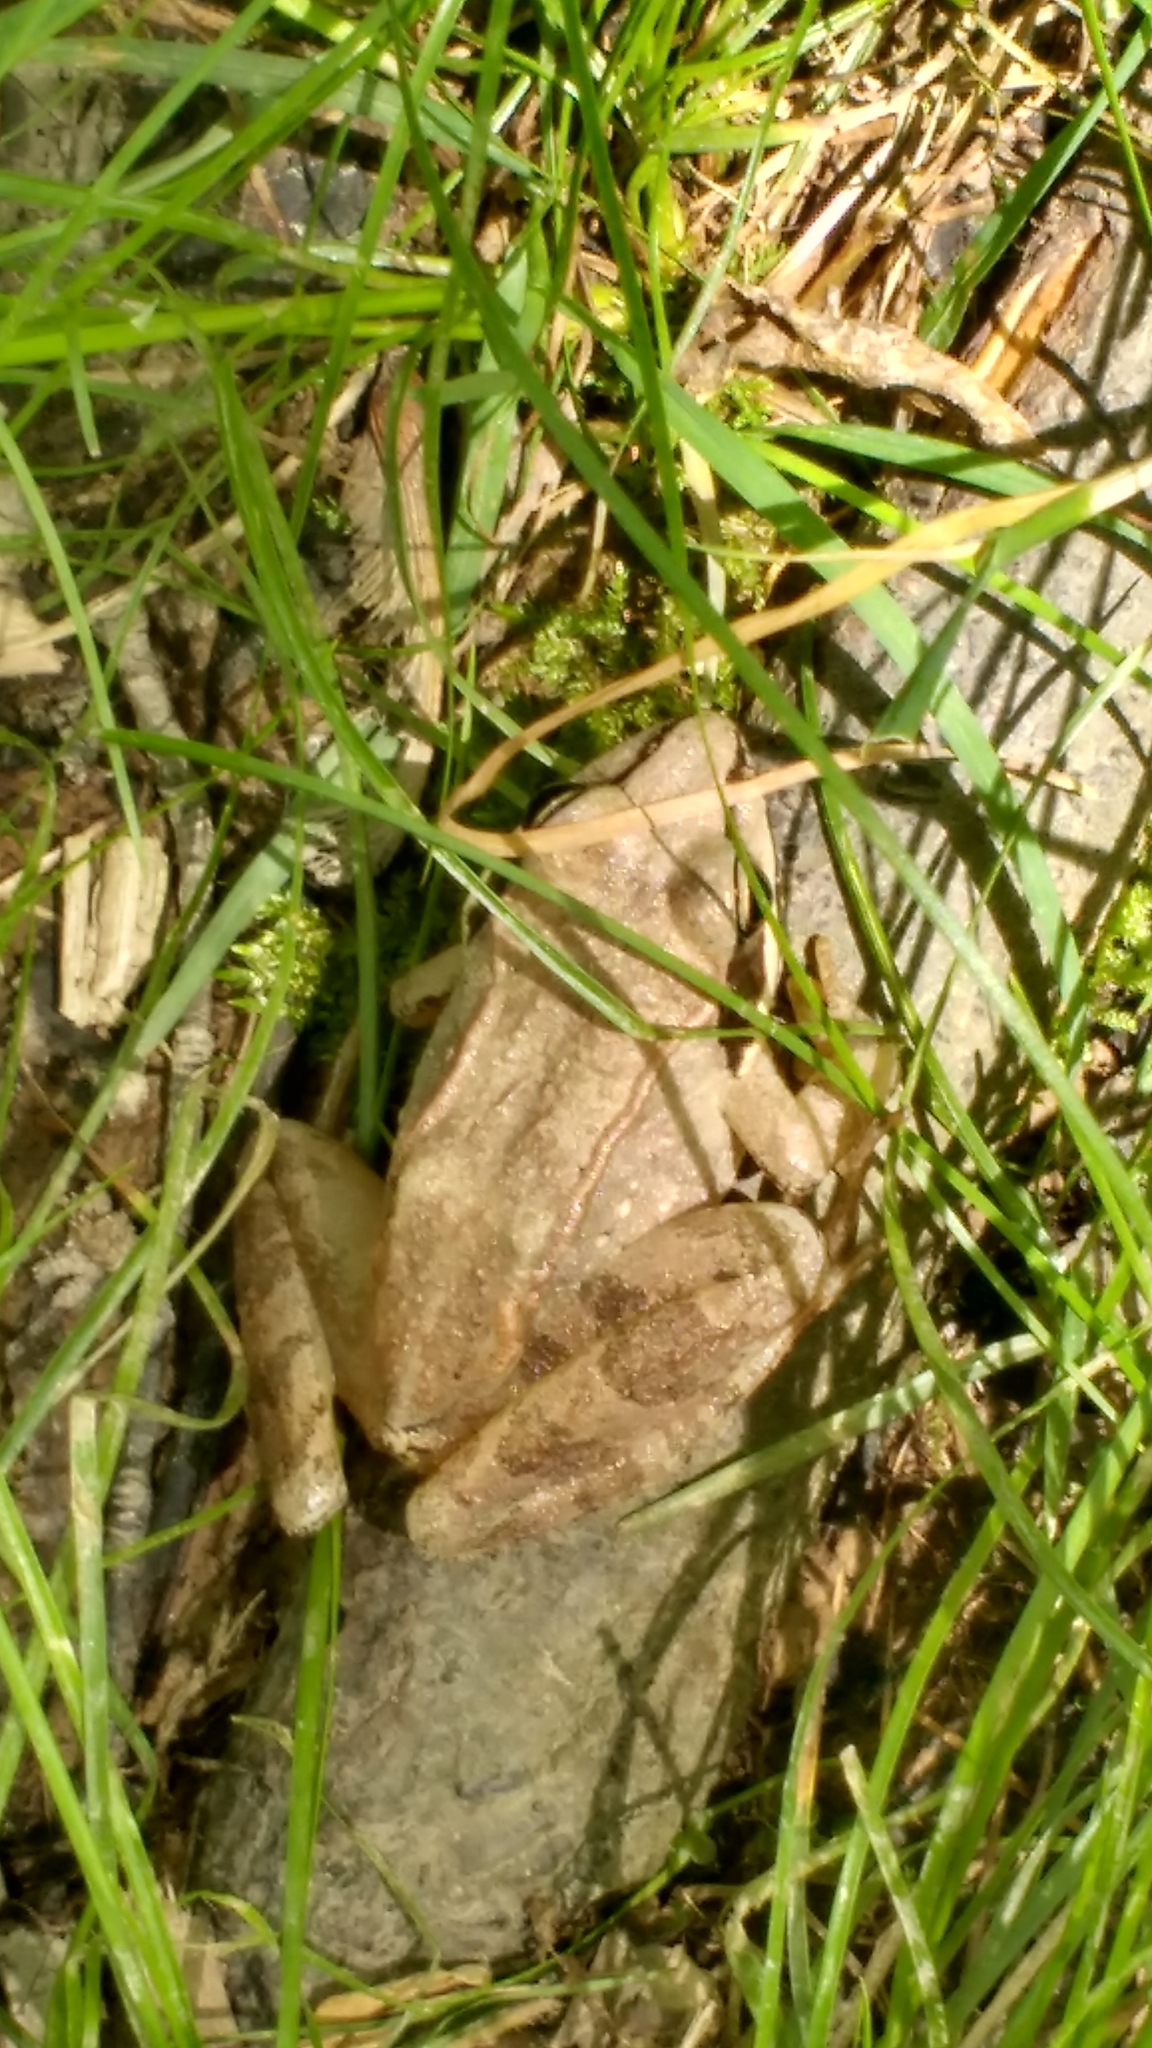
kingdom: Animalia
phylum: Chordata
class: Amphibia
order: Anura
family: Ranidae
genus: Lithobates
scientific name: Lithobates sylvaticus
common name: Wood frog
